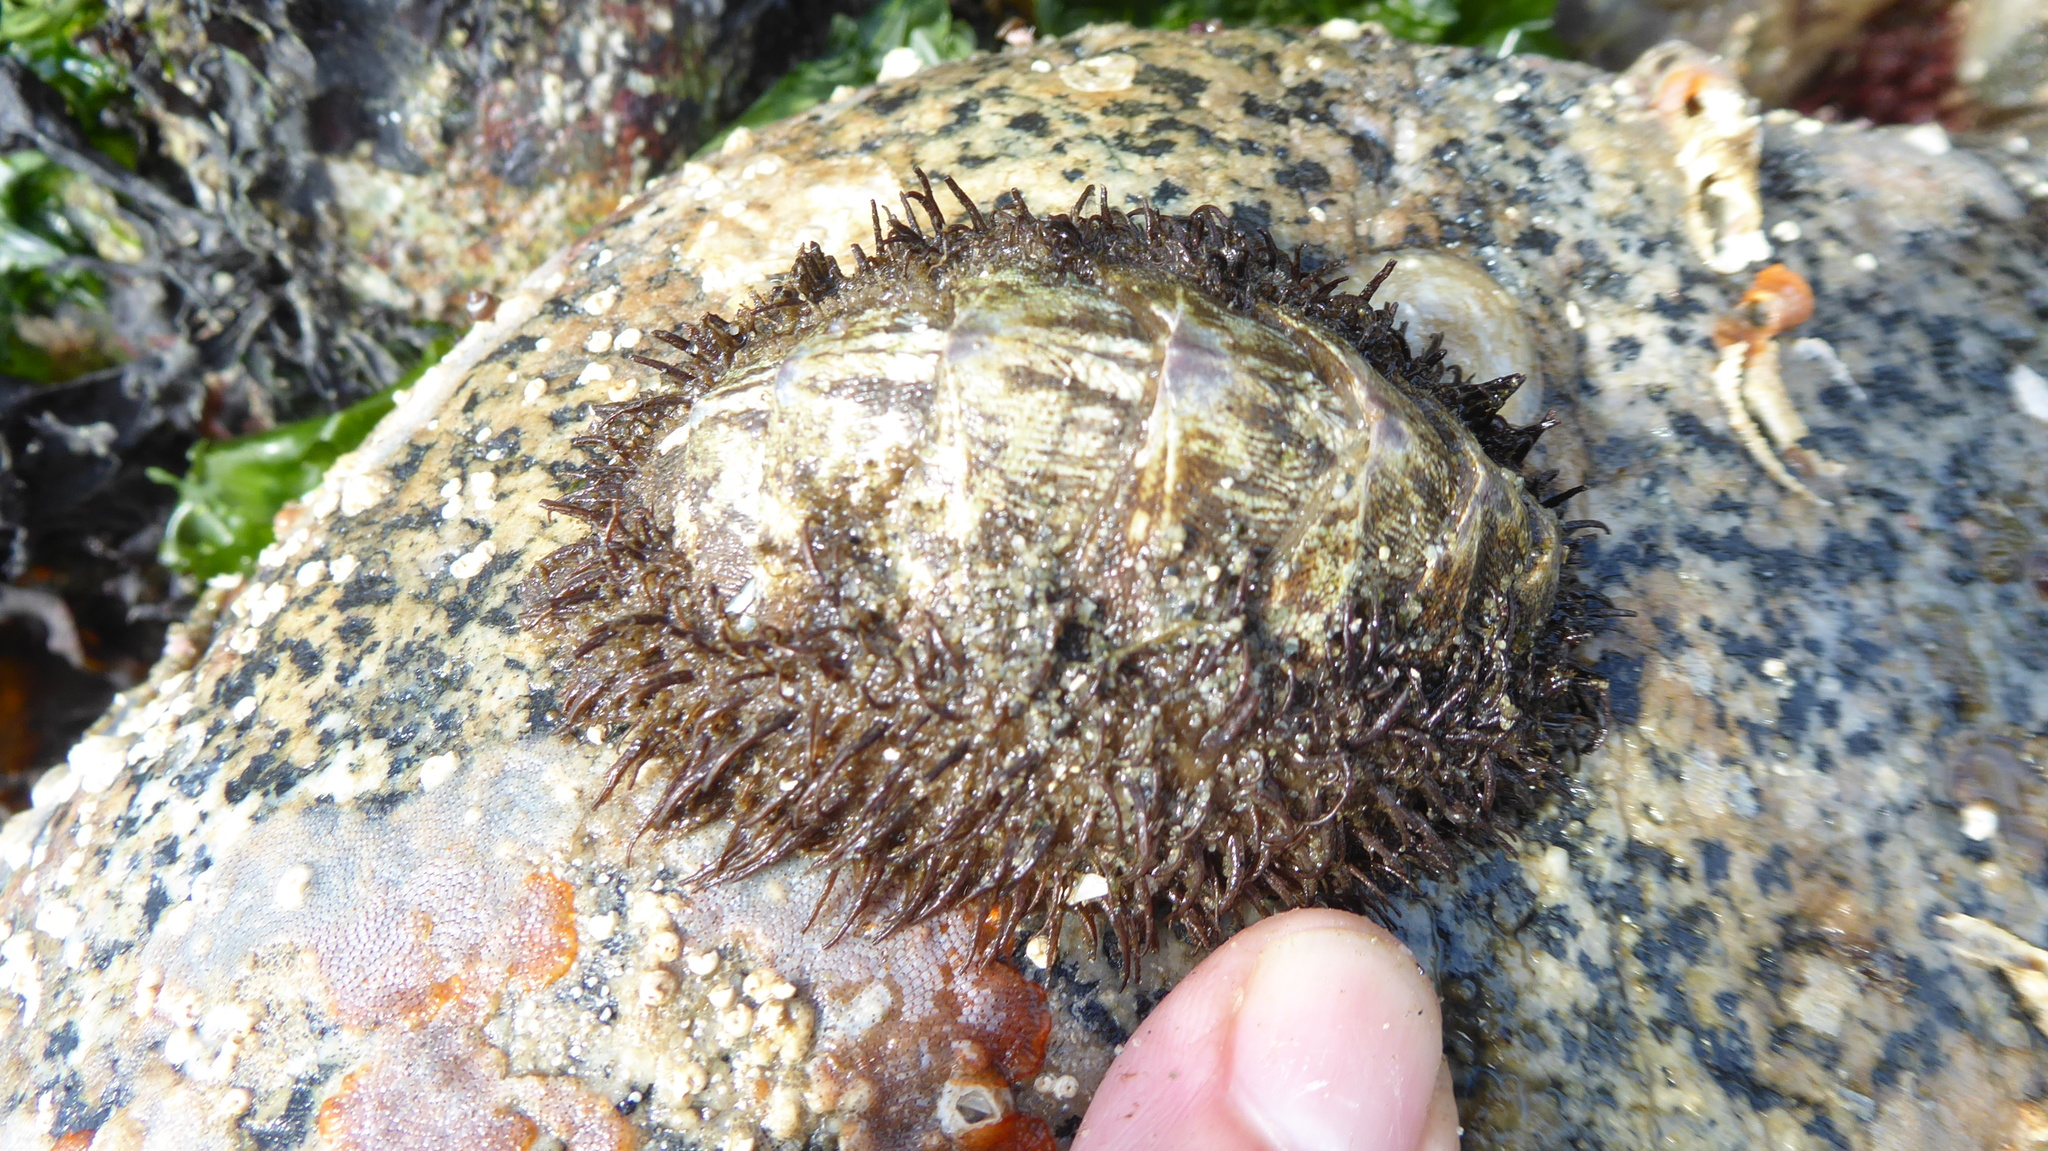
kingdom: Animalia
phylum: Mollusca
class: Polyplacophora
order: Chitonida
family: Mopaliidae
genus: Mopalia
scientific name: Mopalia muscosa
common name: Mossy chiton
